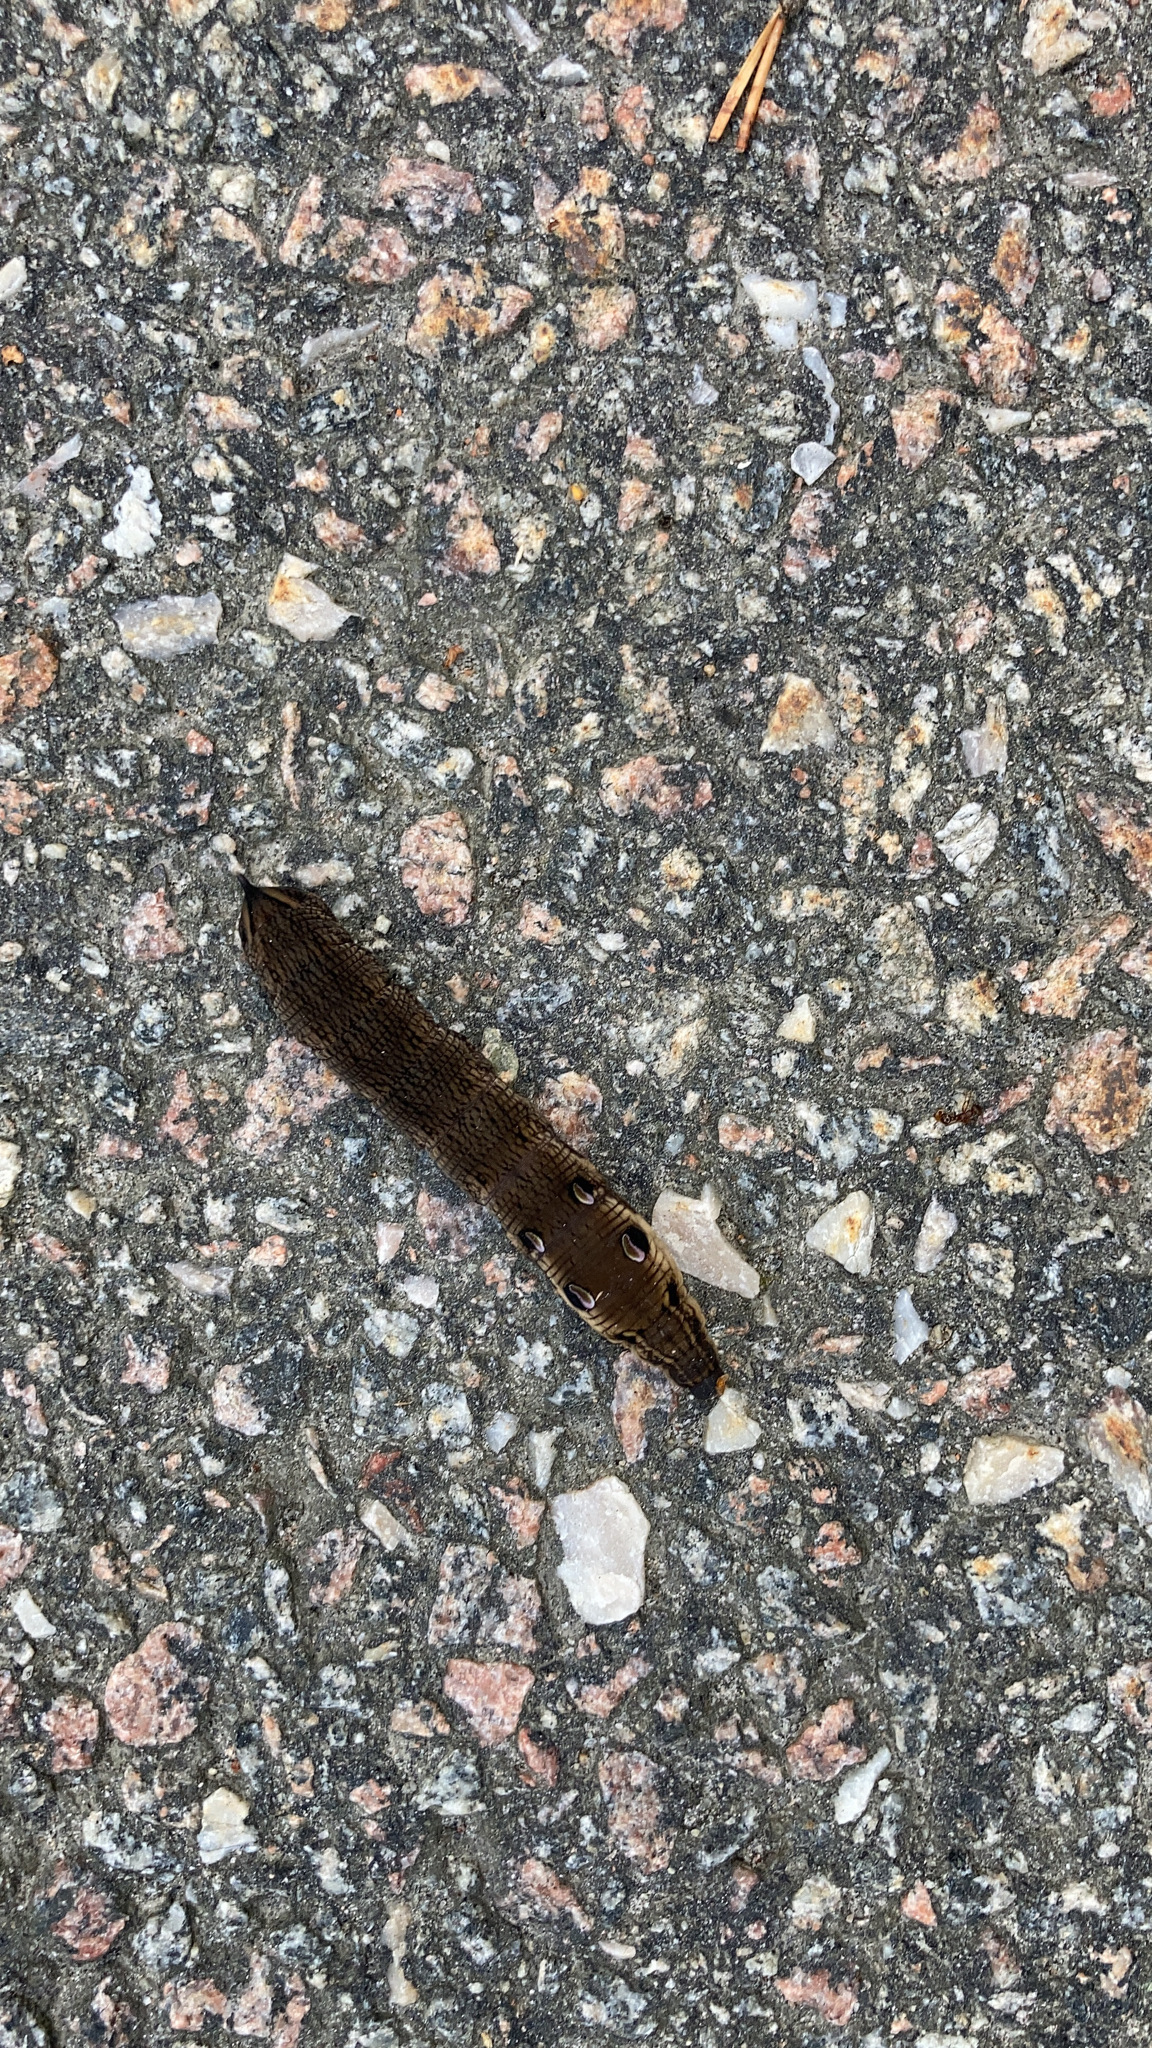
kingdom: Animalia
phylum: Arthropoda
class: Insecta
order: Lepidoptera
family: Sphingidae
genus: Deilephila
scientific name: Deilephila elpenor
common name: Elephant hawk-moth
